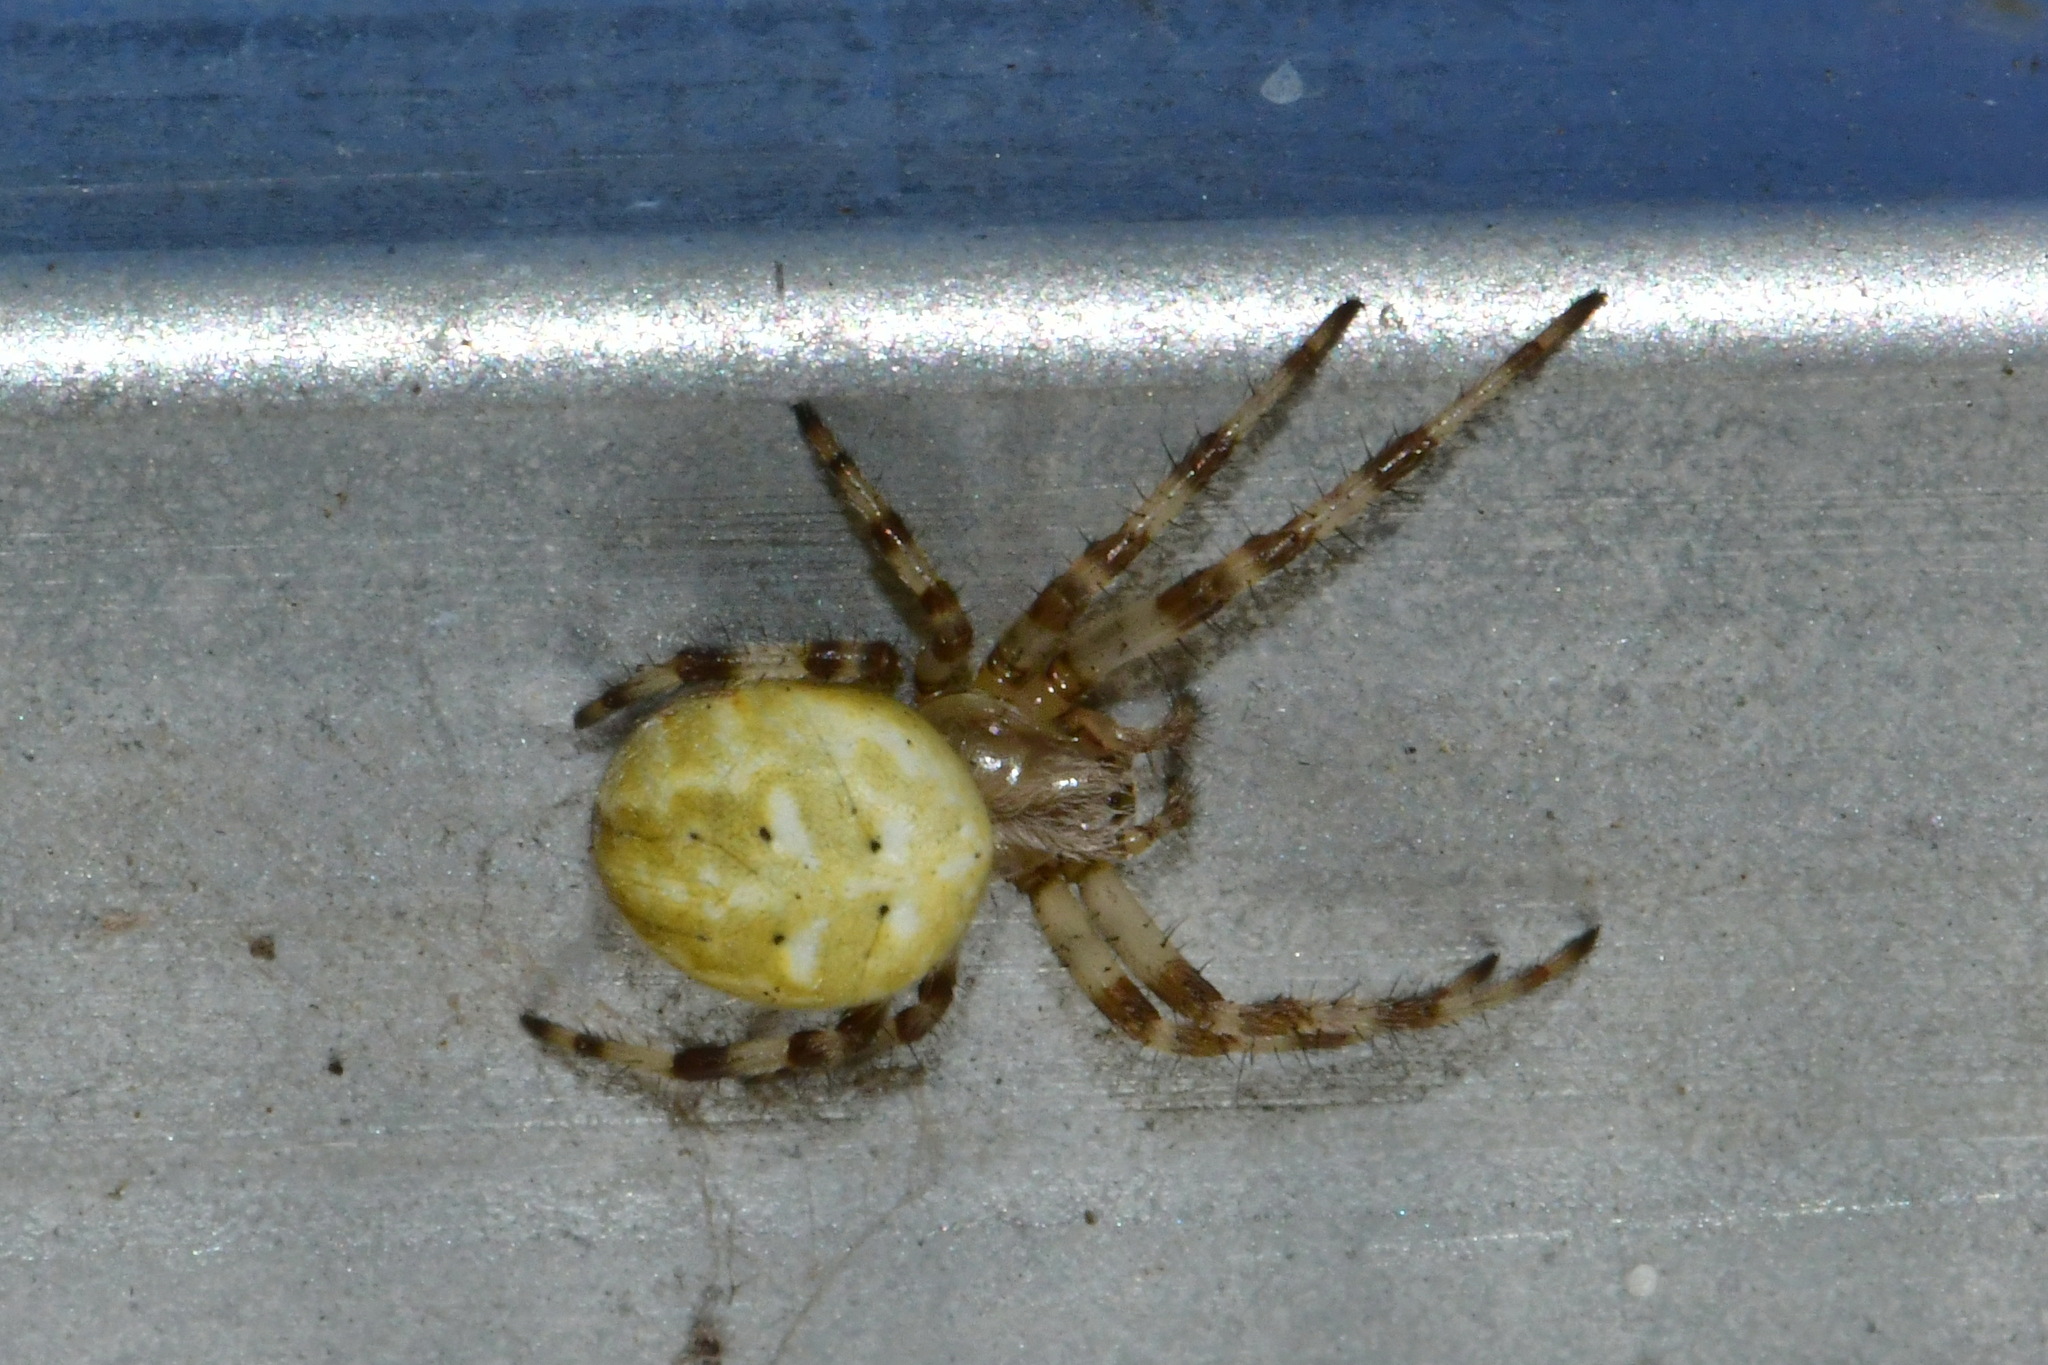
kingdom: Animalia
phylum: Arthropoda
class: Arachnida
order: Araneae
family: Araneidae
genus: Araneus
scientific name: Araneus quadratus
